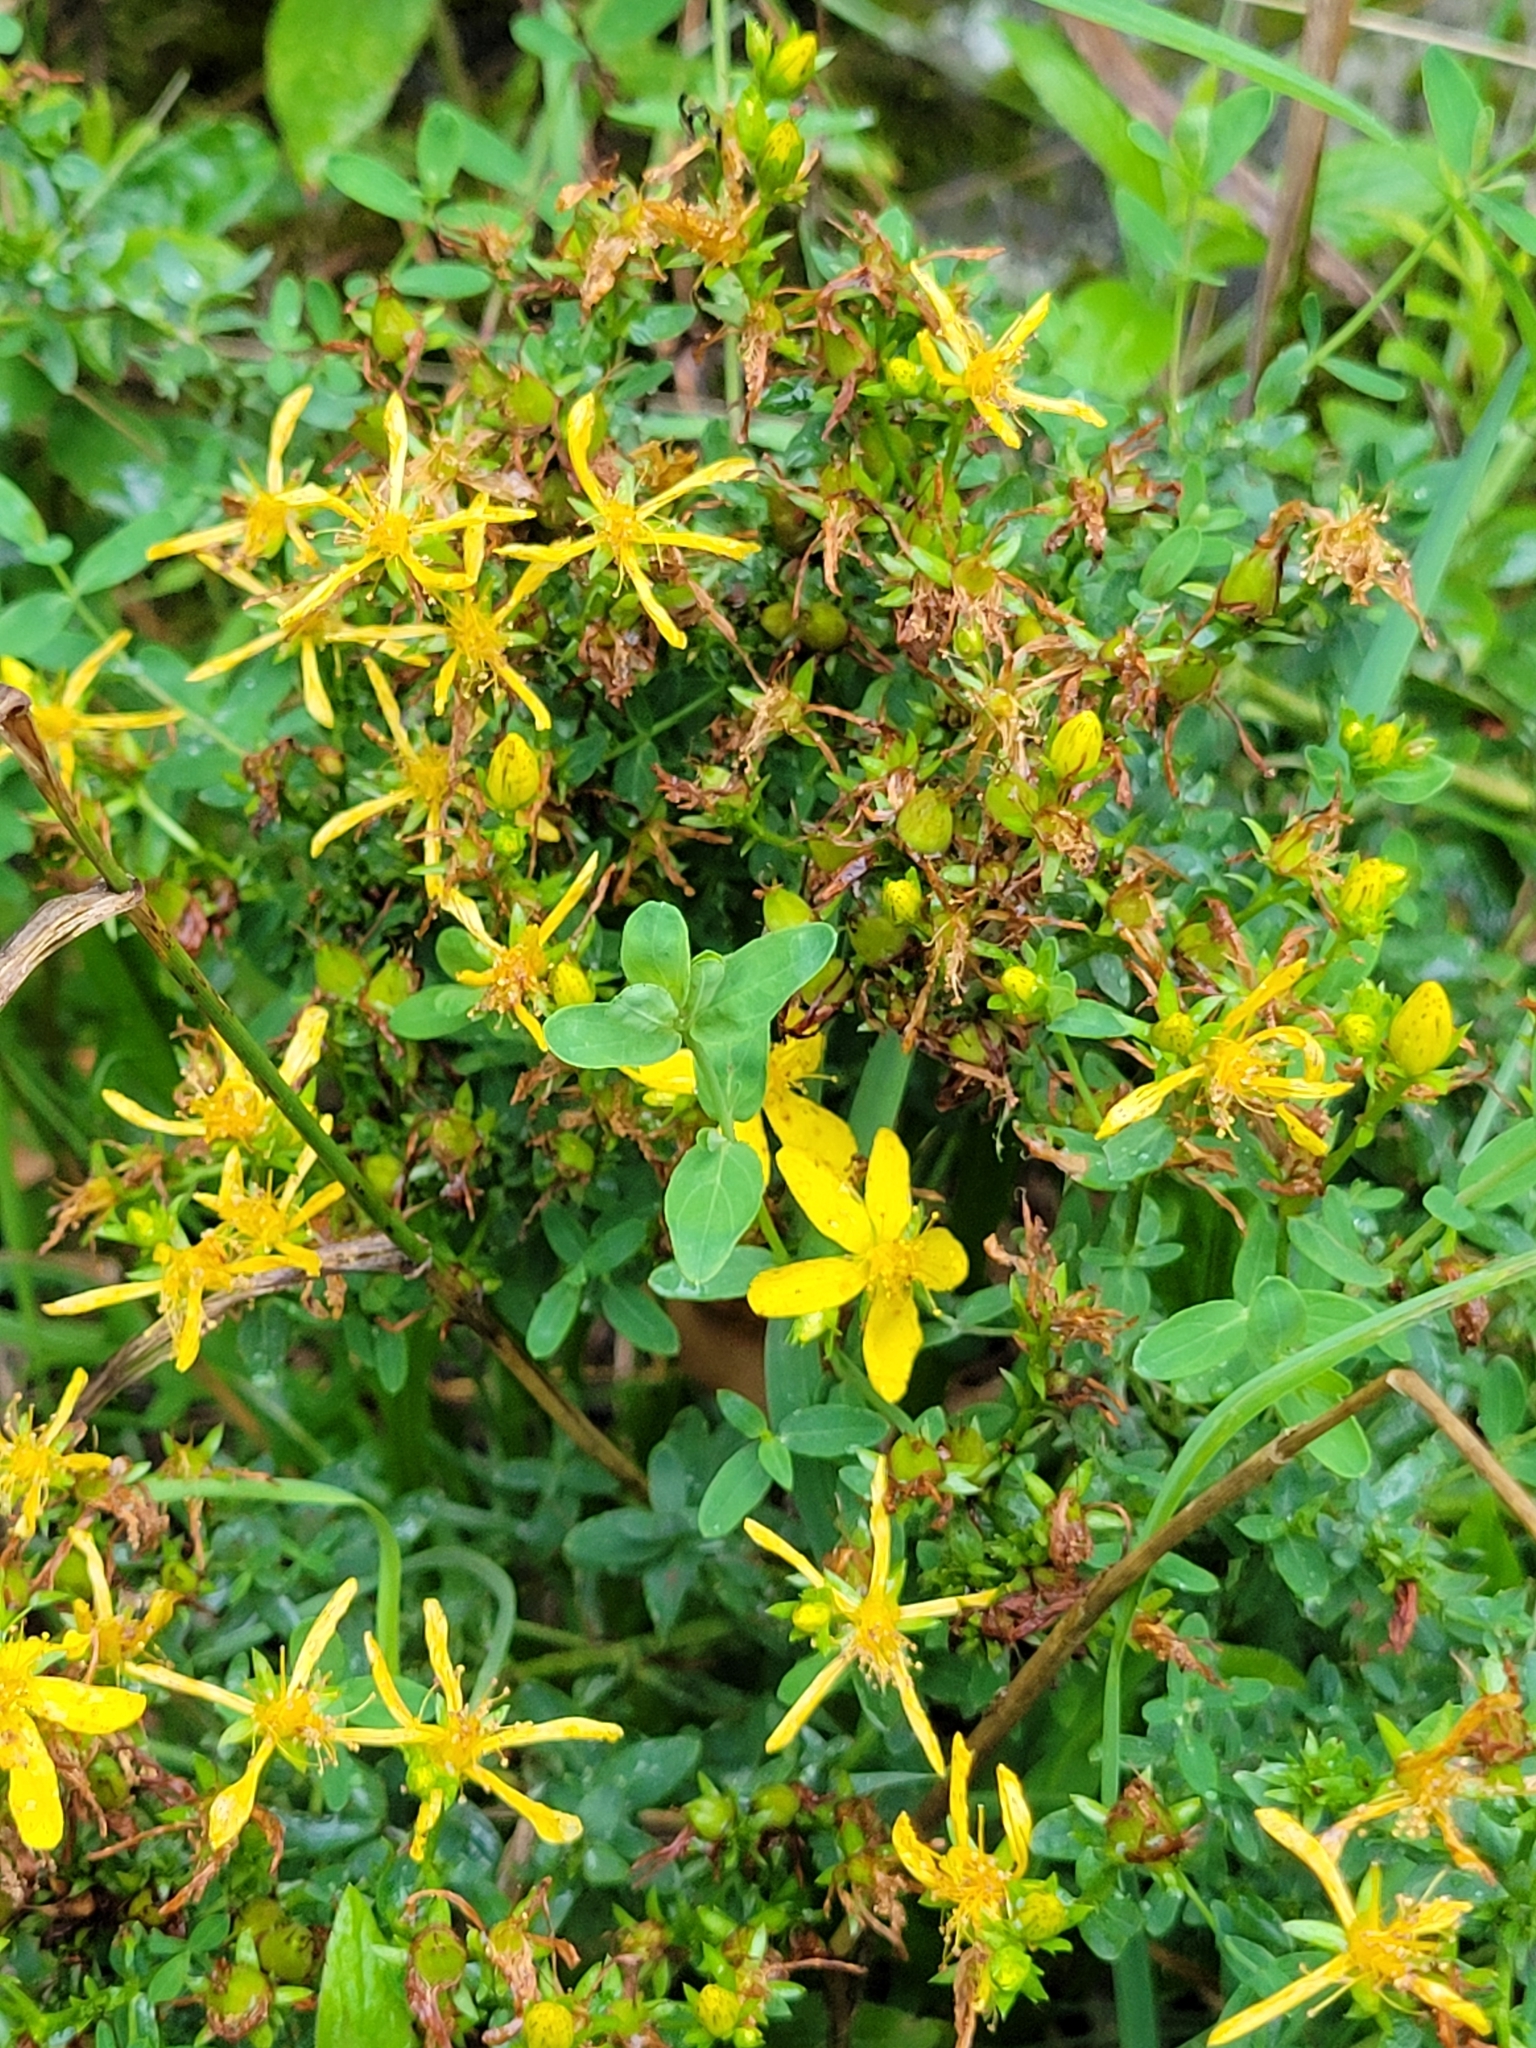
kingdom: Plantae
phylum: Tracheophyta
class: Magnoliopsida
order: Malpighiales
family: Hypericaceae
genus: Hypericum
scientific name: Hypericum perforatum
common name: Common st. johnswort
